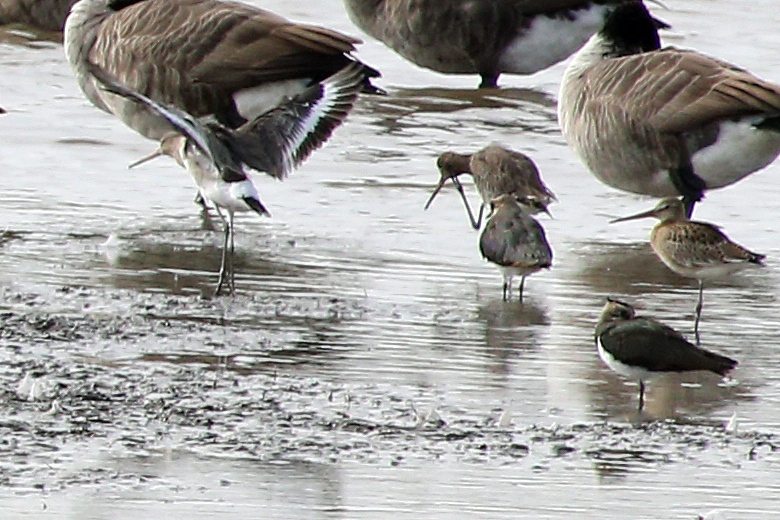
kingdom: Animalia
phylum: Chordata
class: Aves
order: Charadriiformes
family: Scolopacidae
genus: Limosa
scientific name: Limosa limosa
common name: Black-tailed godwit
